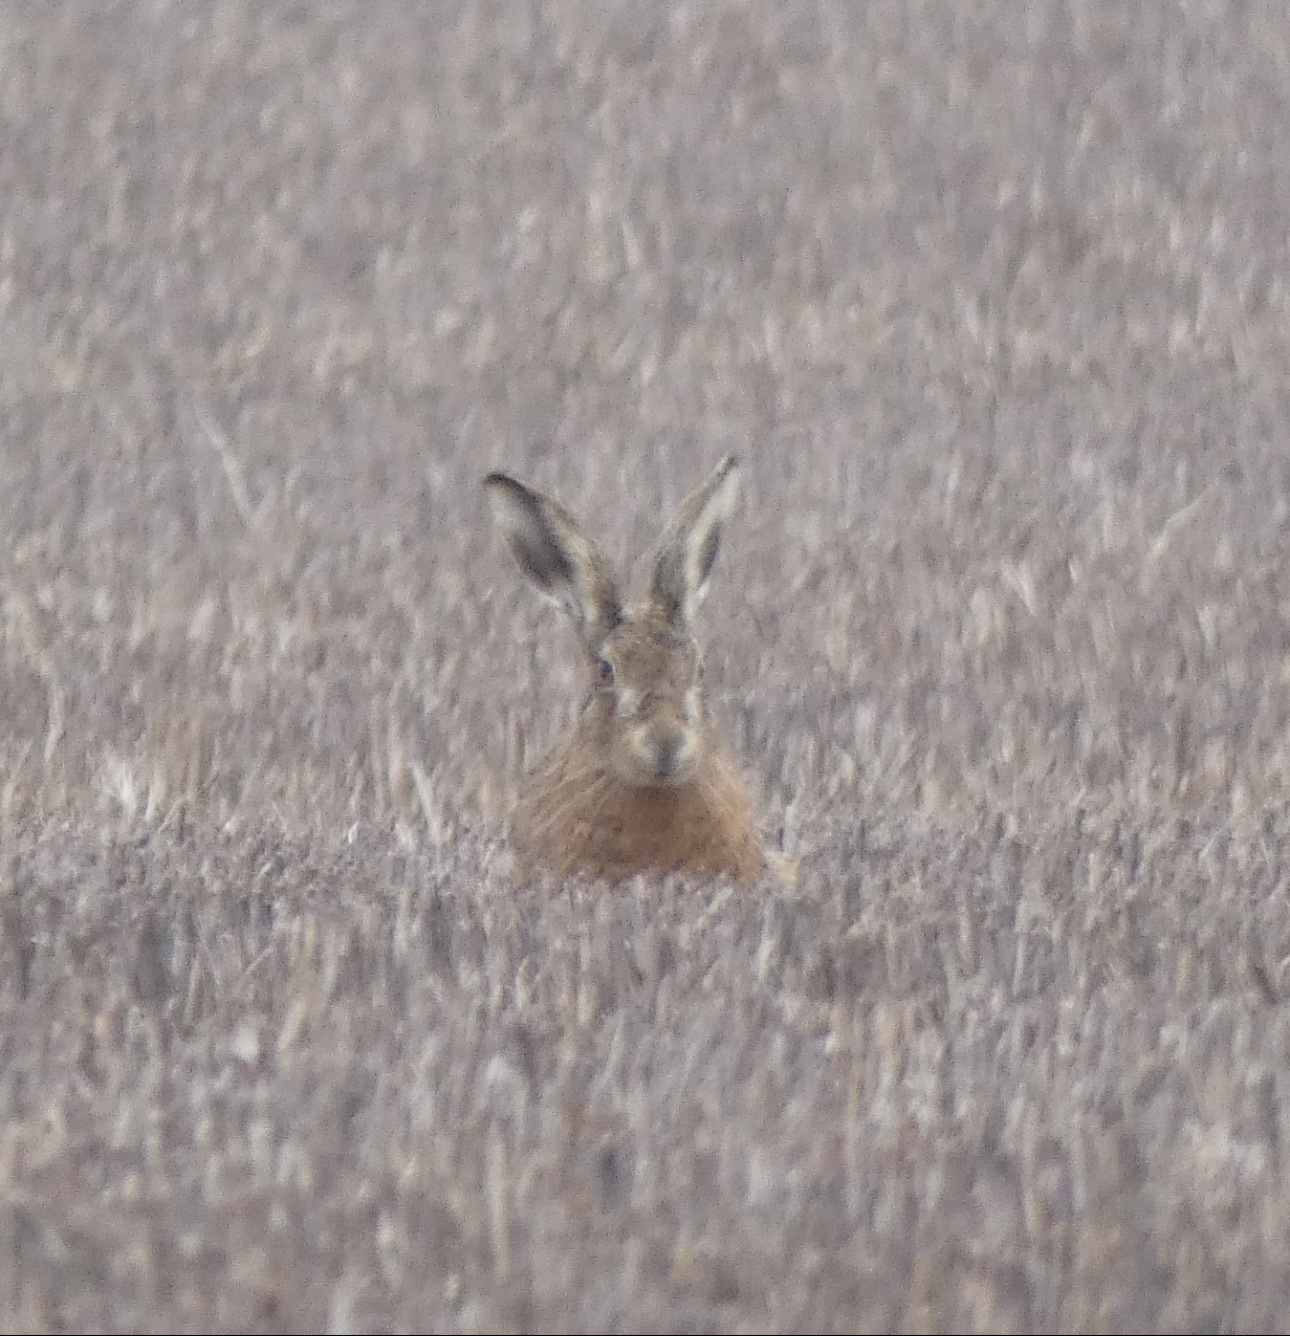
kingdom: Animalia
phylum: Chordata
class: Mammalia
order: Lagomorpha
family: Leporidae
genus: Lepus
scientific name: Lepus europaeus
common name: European hare
